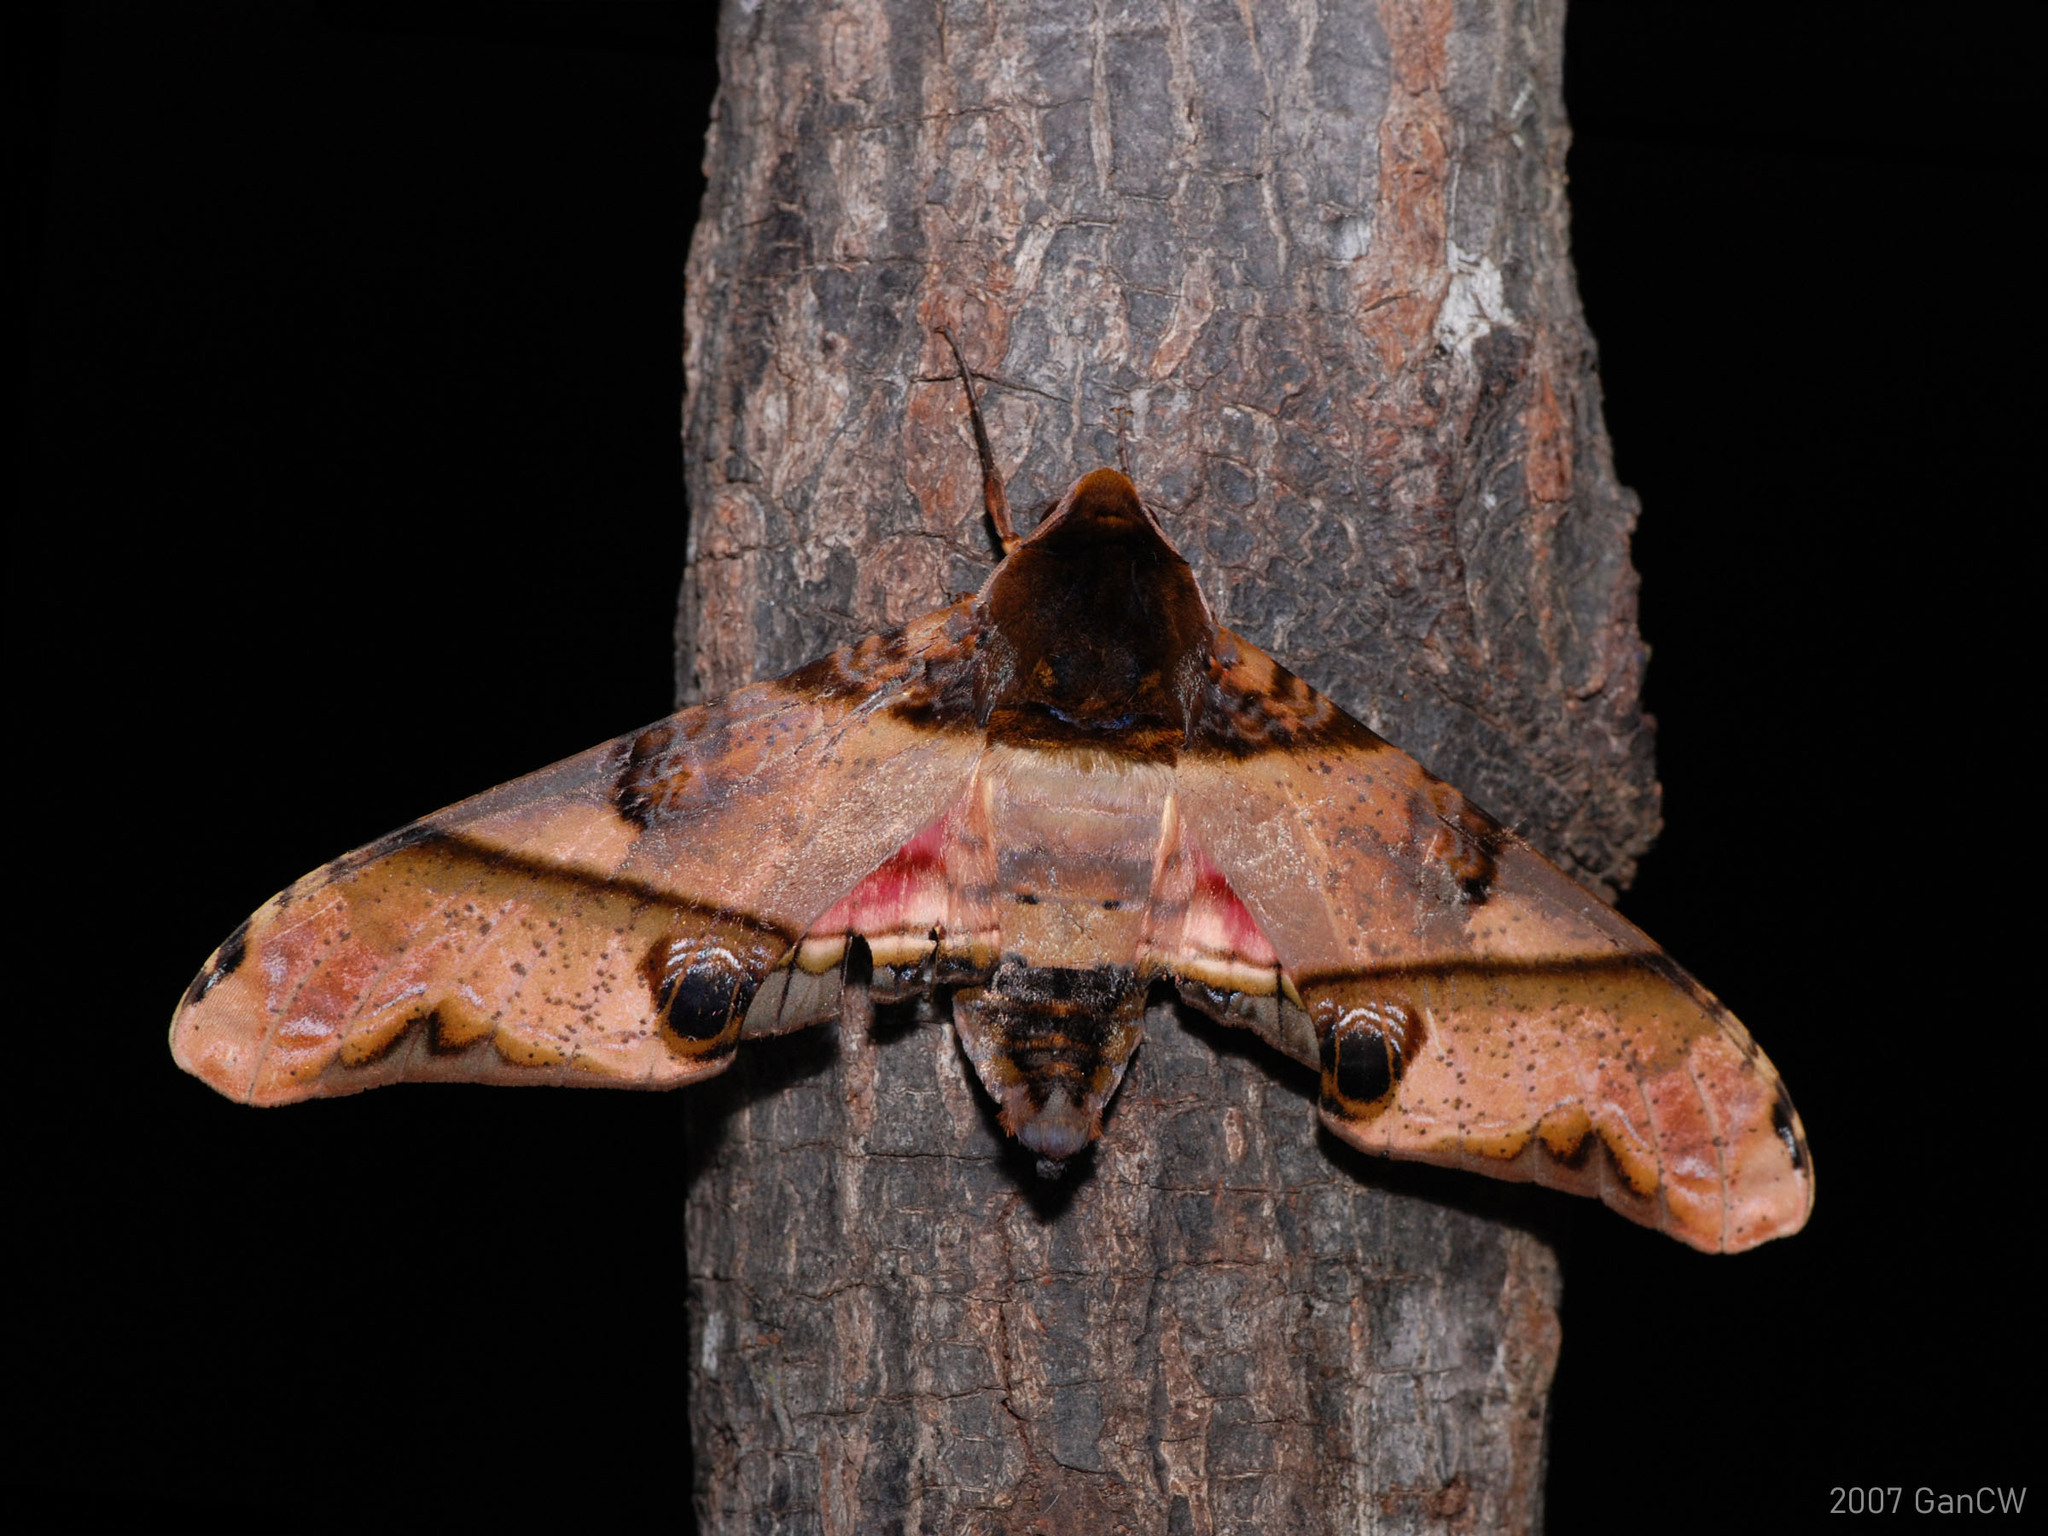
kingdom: Animalia
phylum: Arthropoda
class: Insecta
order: Lepidoptera
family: Sphingidae
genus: Amplypterus
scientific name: Amplypterus panopus
